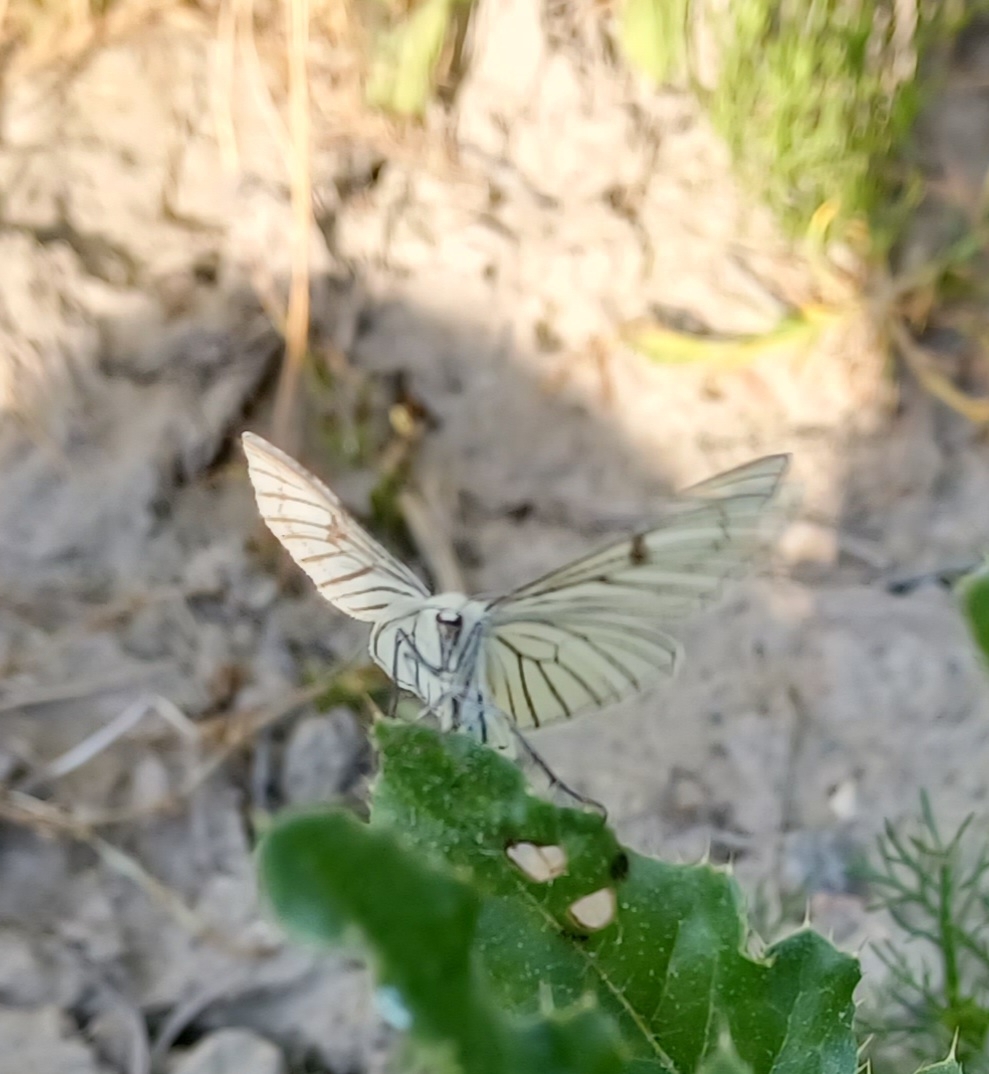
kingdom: Animalia
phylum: Arthropoda
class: Insecta
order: Lepidoptera
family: Geometridae
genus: Siona
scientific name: Siona lineata
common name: Black-veined moth
